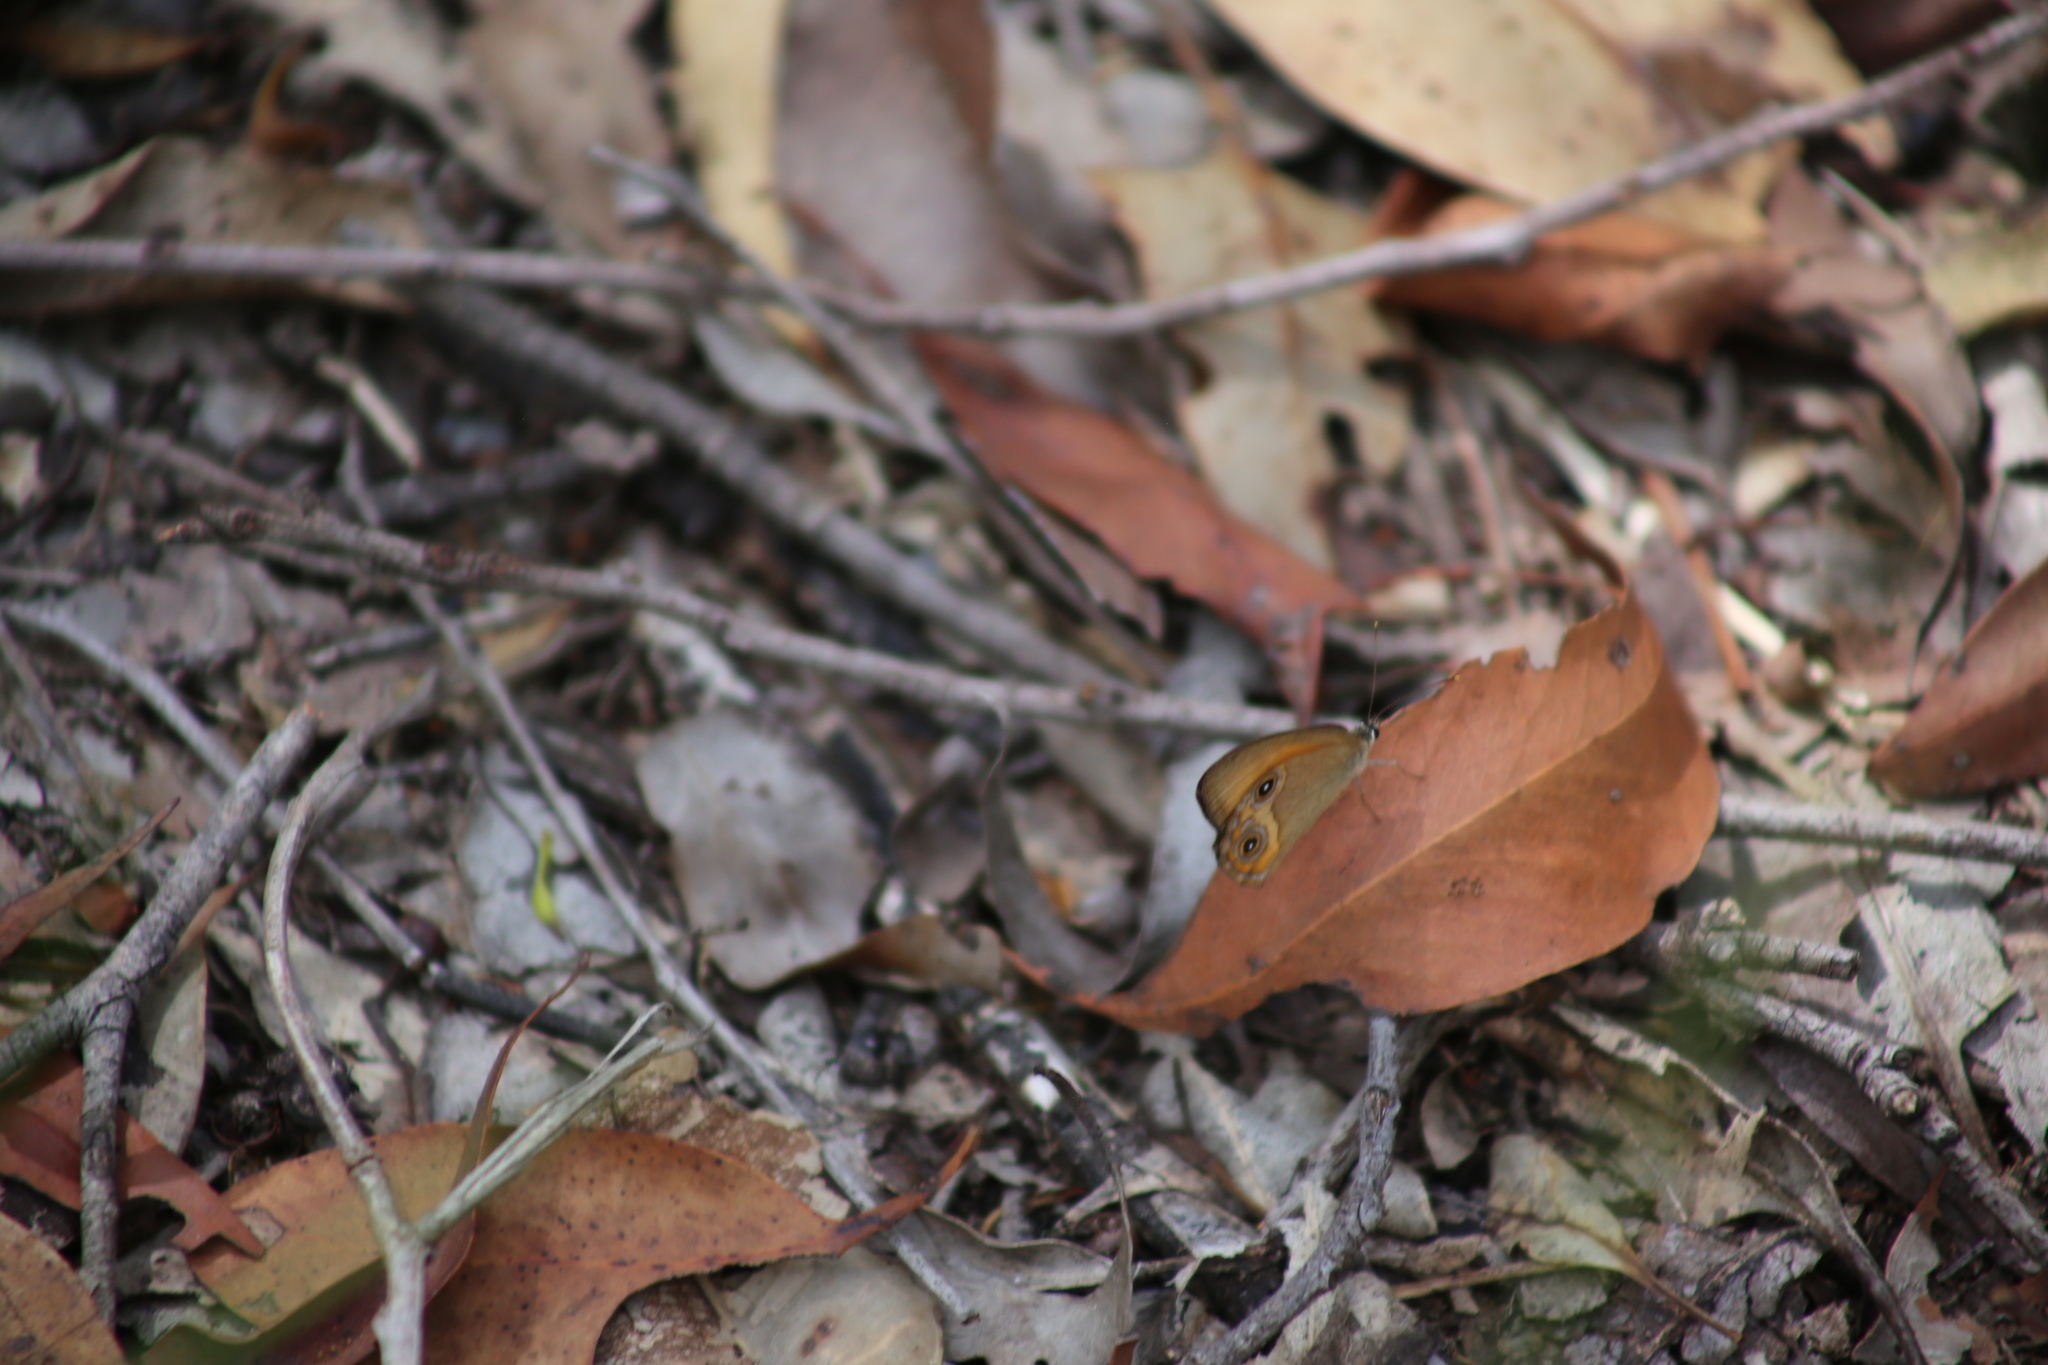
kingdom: Animalia
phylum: Arthropoda
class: Insecta
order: Lepidoptera
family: Nymphalidae
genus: Hypocysta
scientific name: Hypocysta adiante
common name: Orange ringlet
